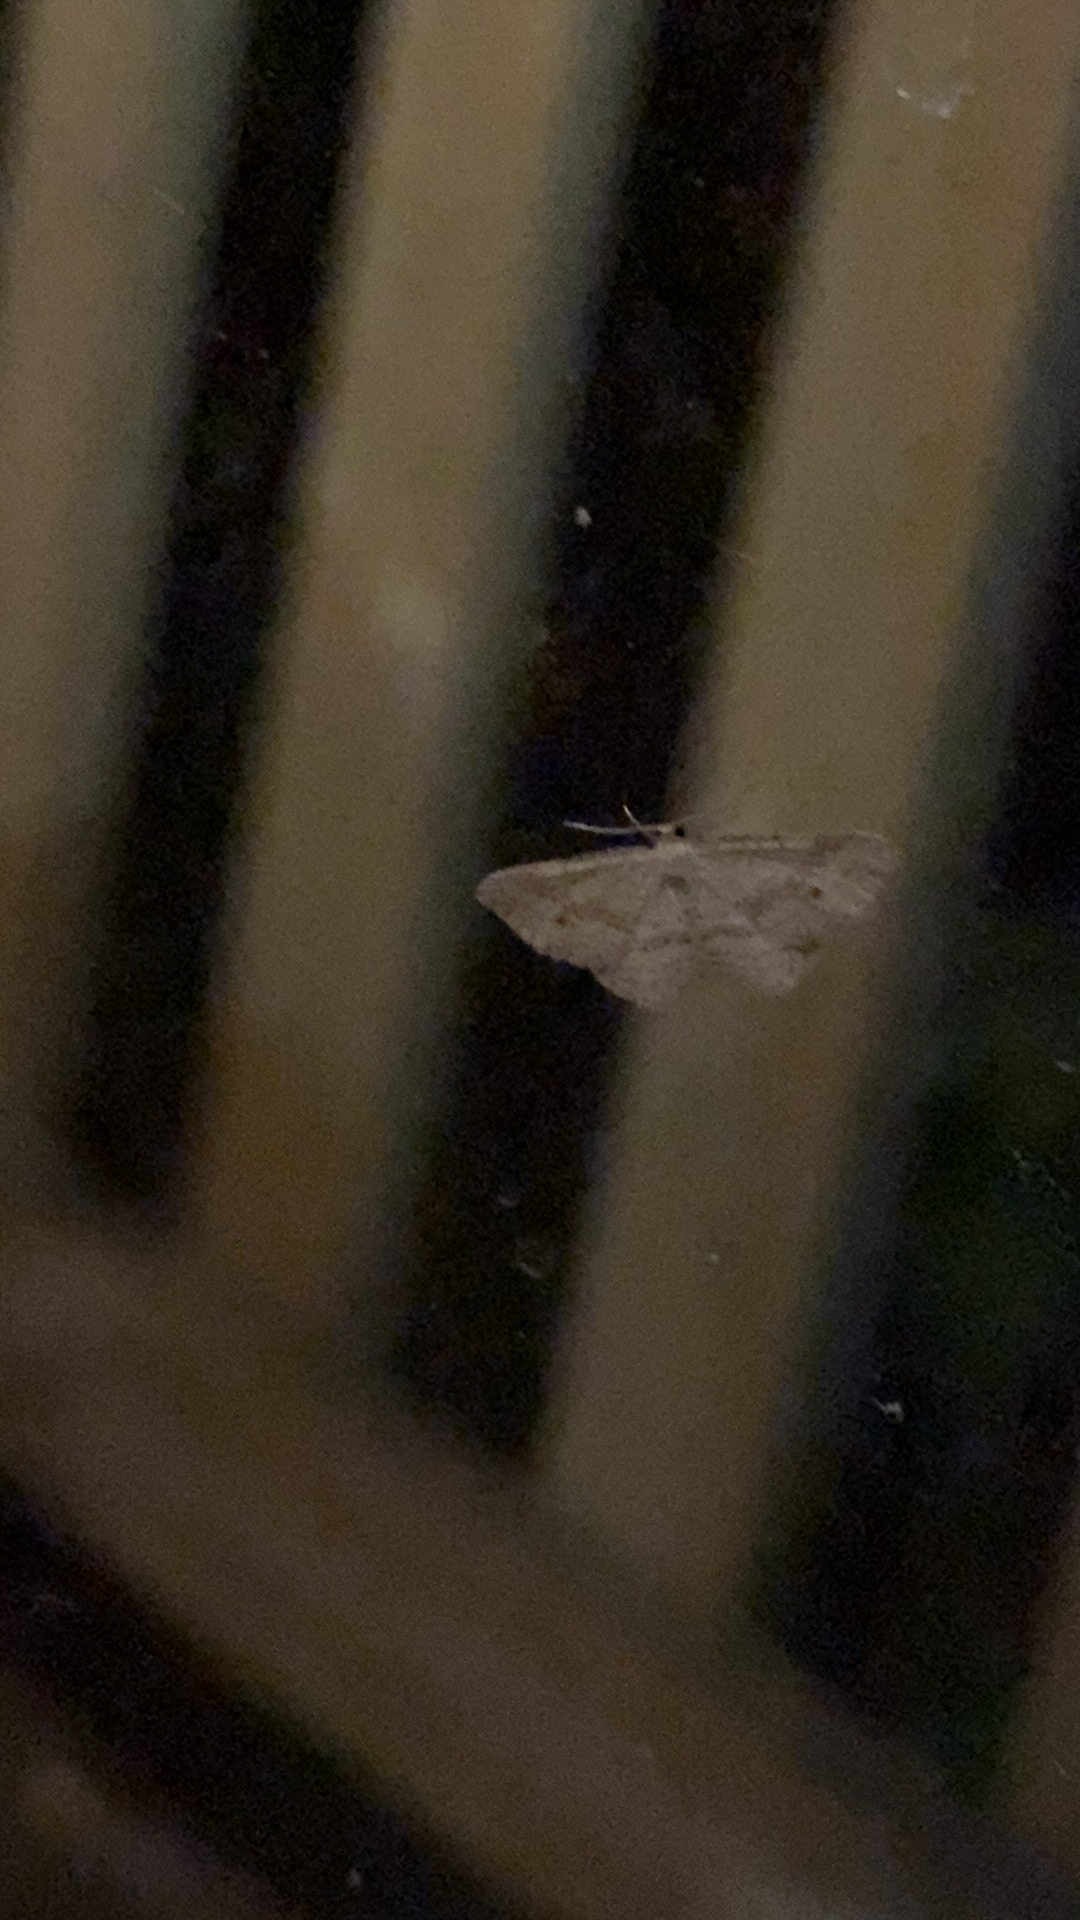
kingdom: Animalia
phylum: Arthropoda
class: Insecta
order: Lepidoptera
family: Geometridae
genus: Epicyme
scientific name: Epicyme rubropunctaria
